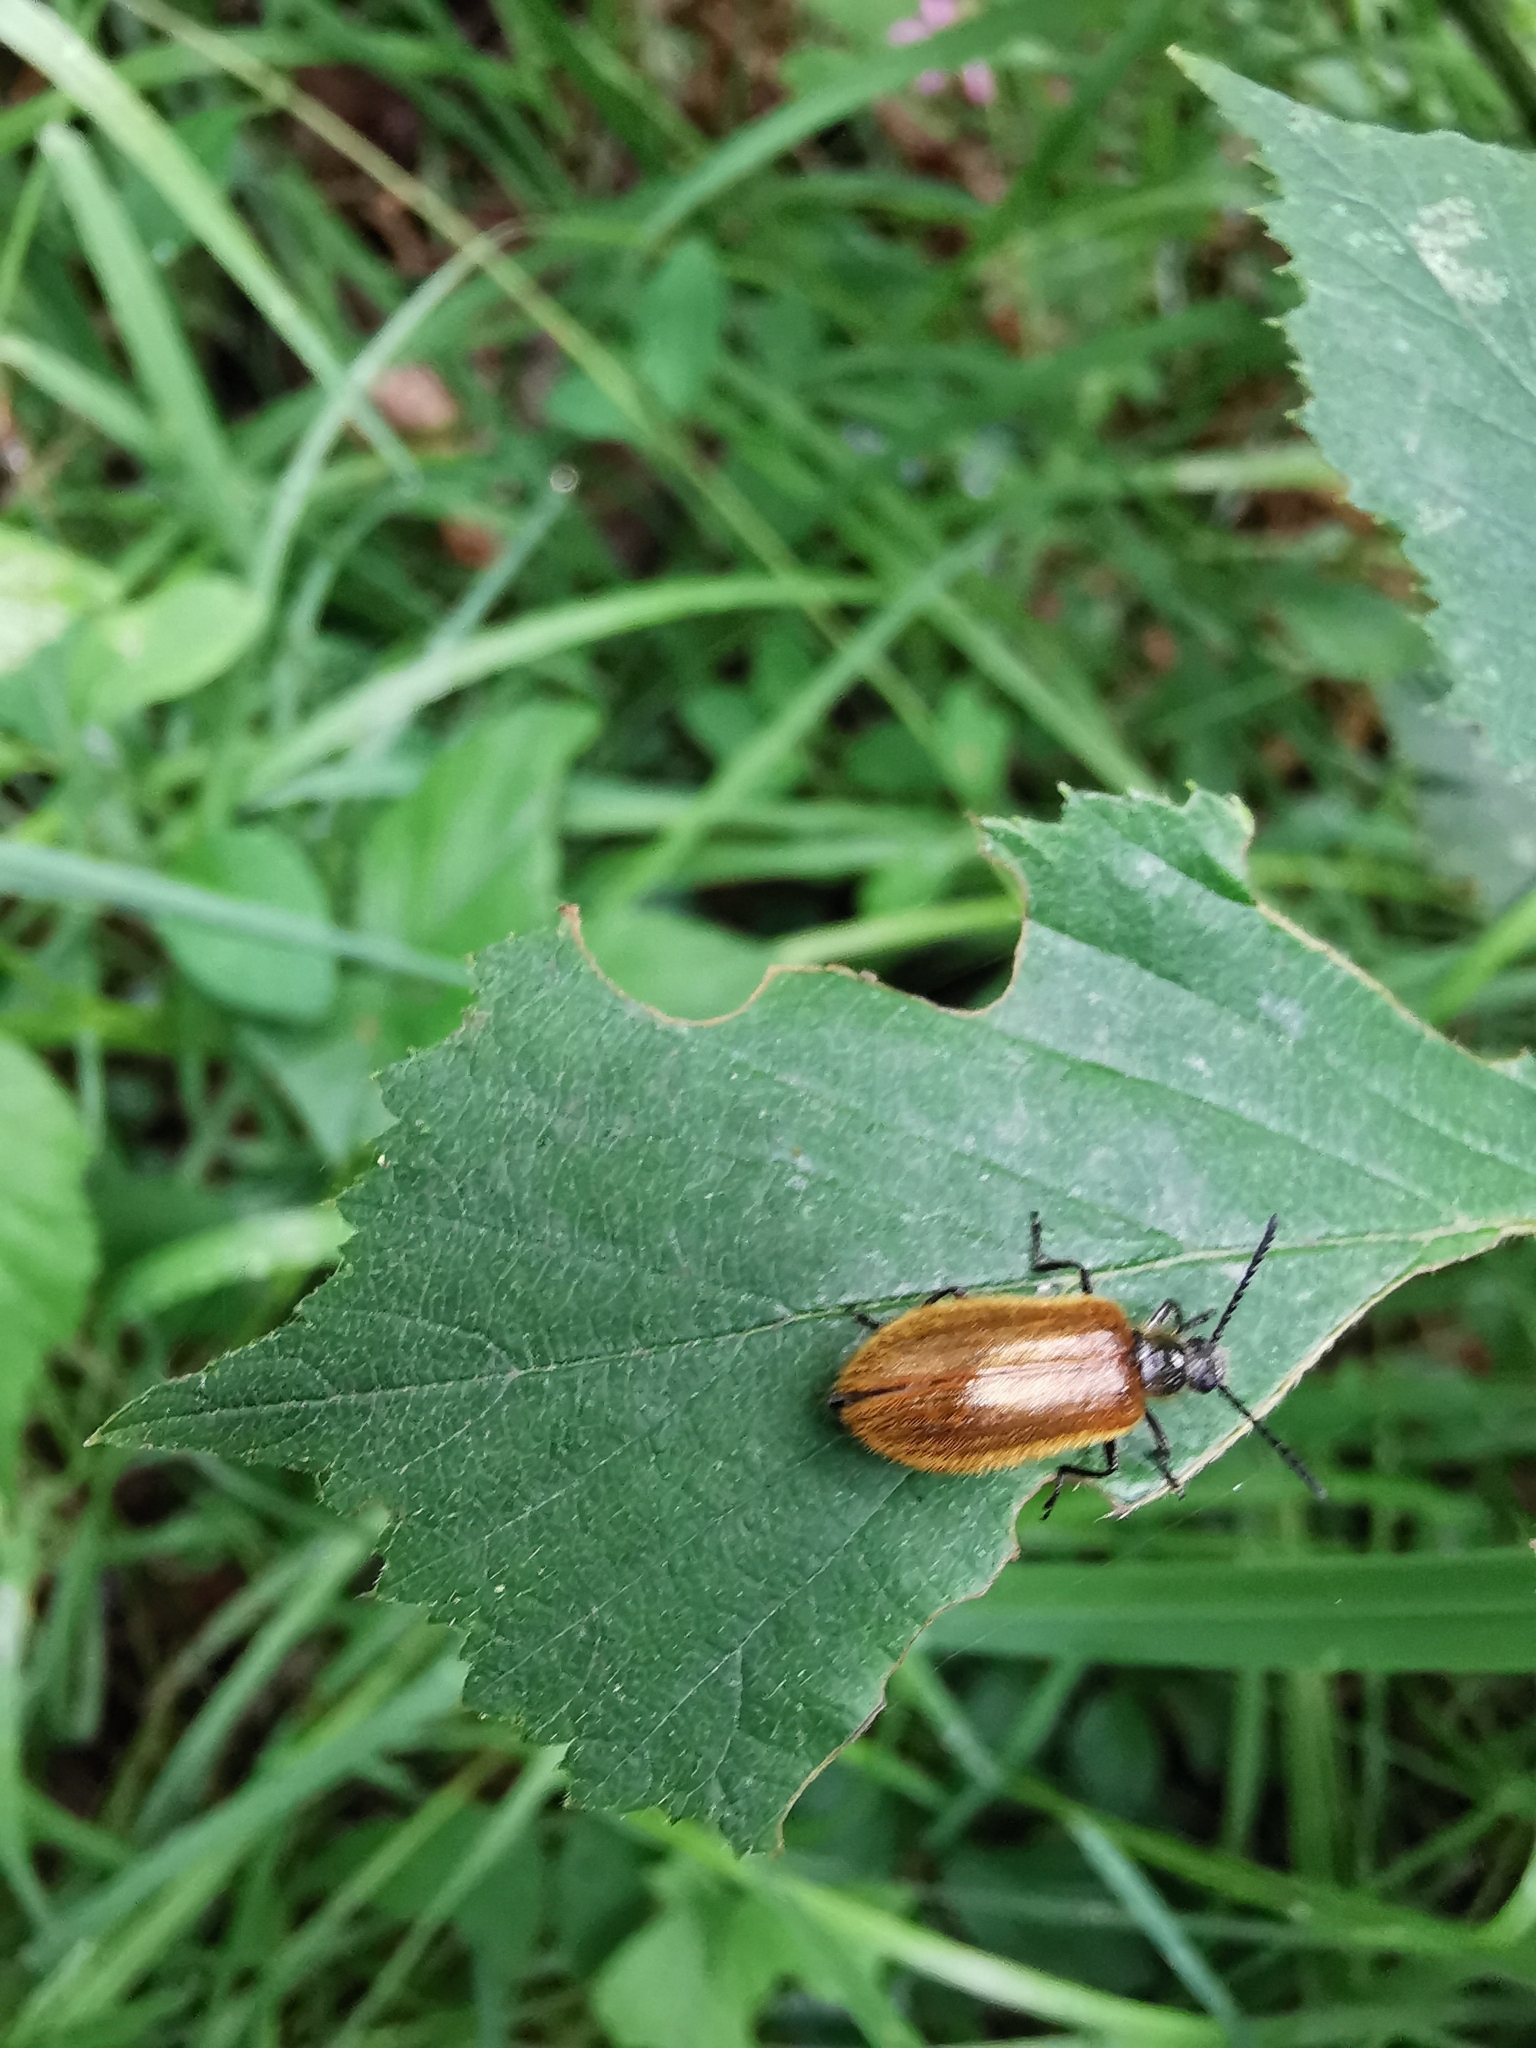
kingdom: Animalia
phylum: Arthropoda
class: Insecta
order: Coleoptera
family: Tenebrionidae
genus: Lagria
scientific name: Lagria hirta
